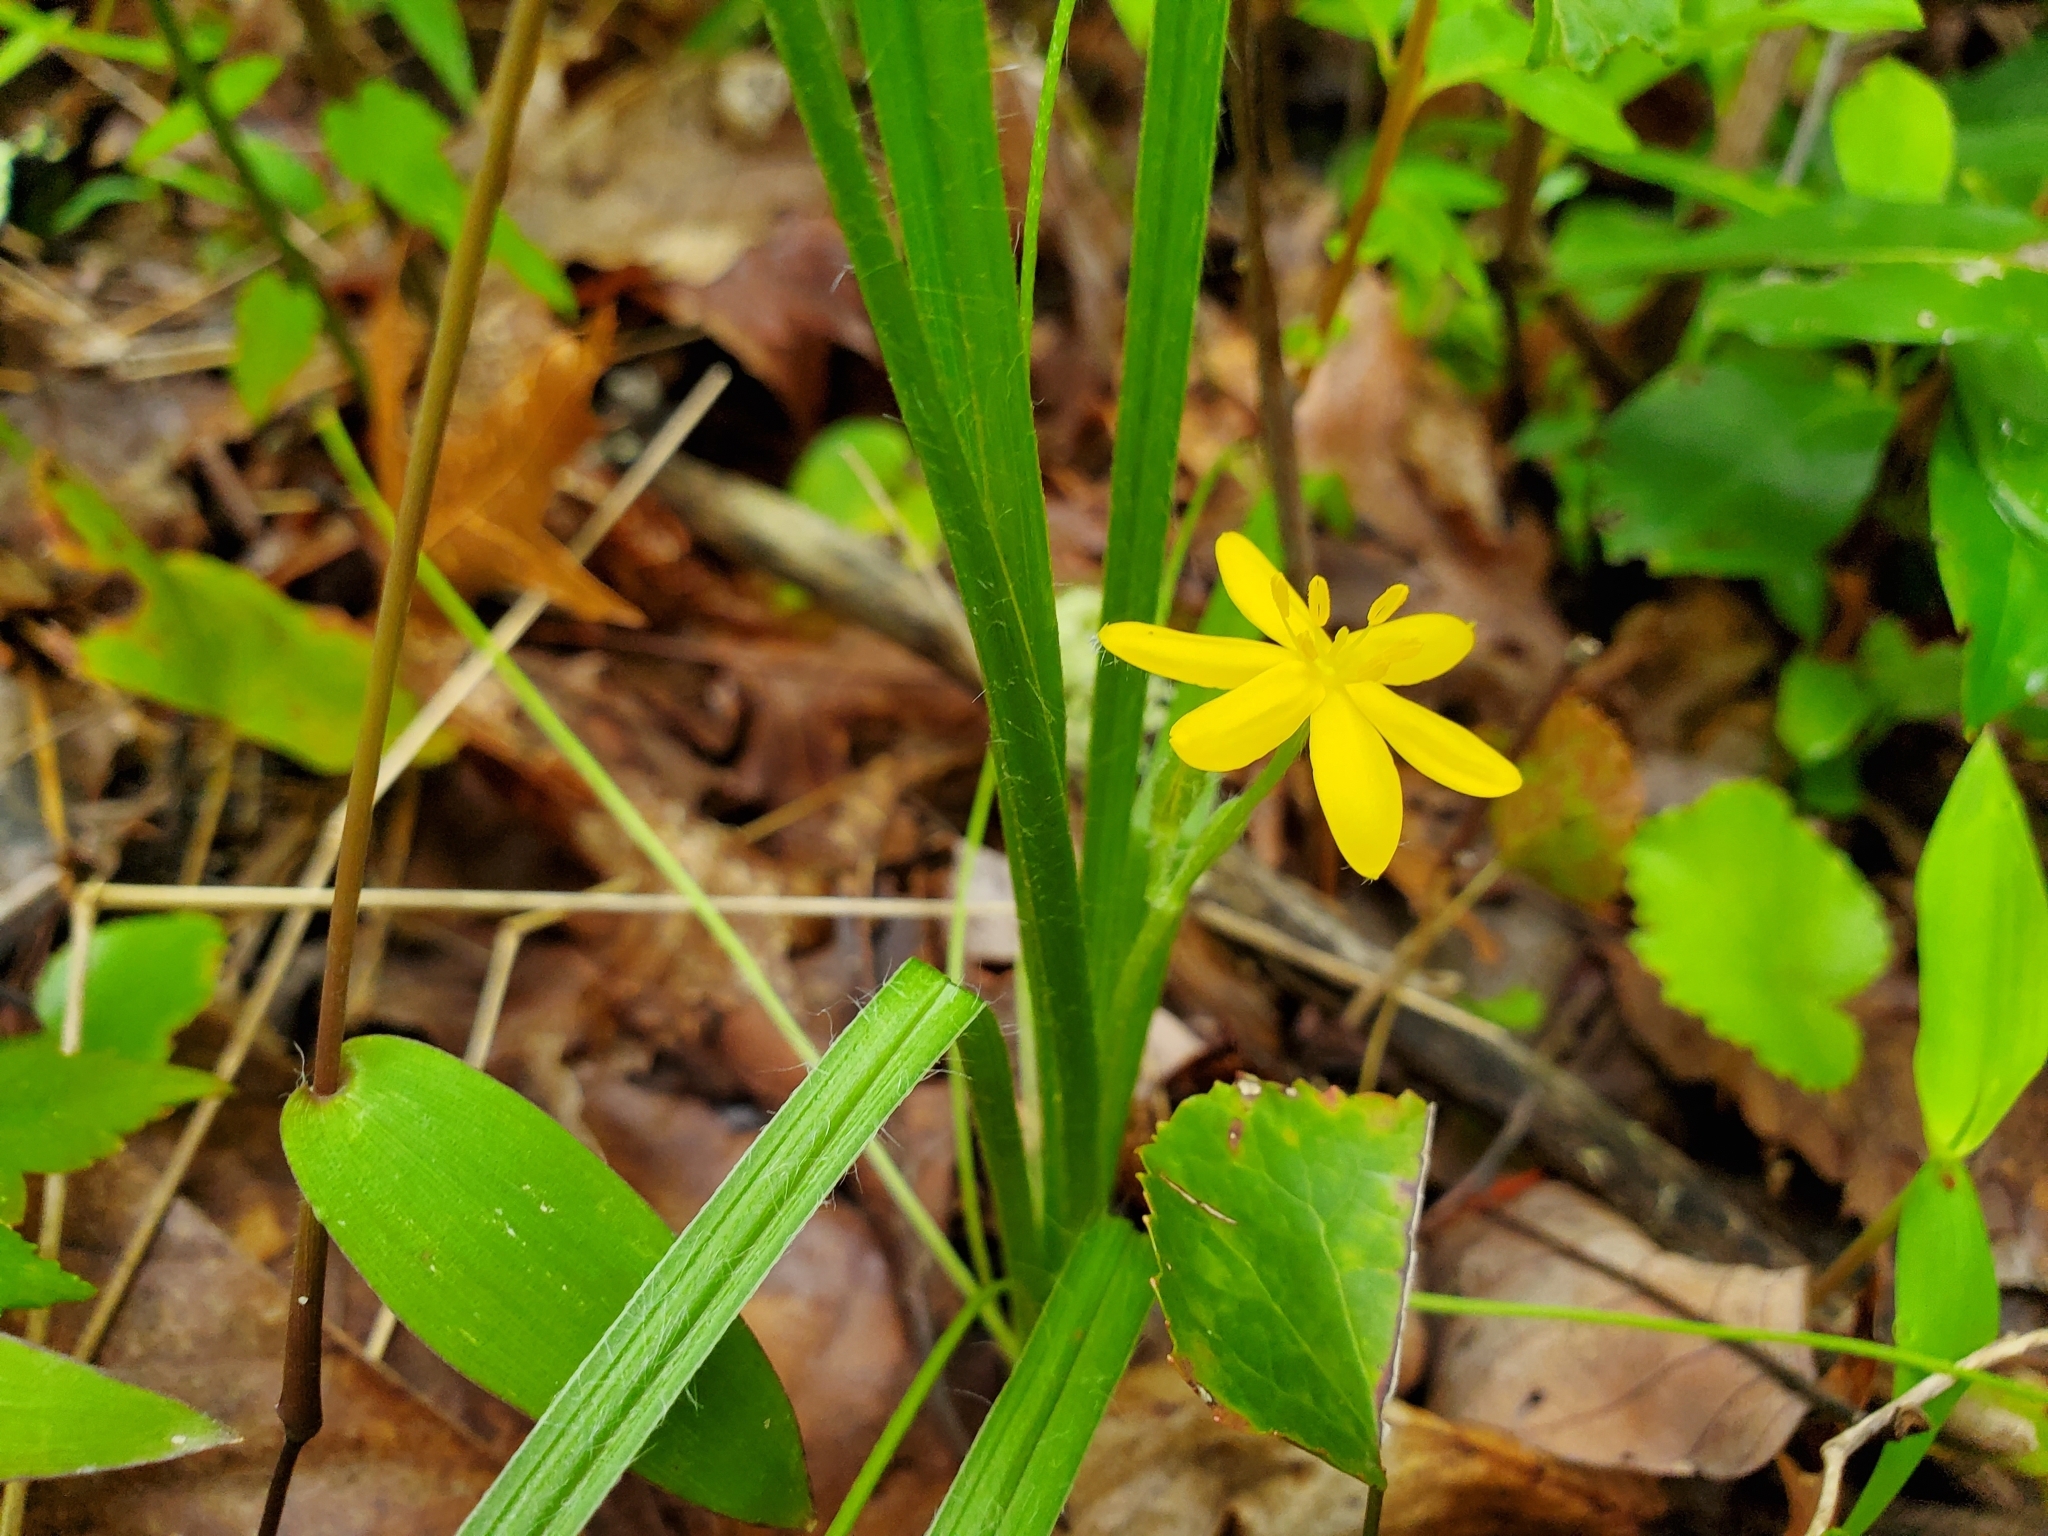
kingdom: Plantae
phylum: Tracheophyta
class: Liliopsida
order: Asparagales
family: Hypoxidaceae
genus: Hypoxis
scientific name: Hypoxis hirsuta
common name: Common goldstar
